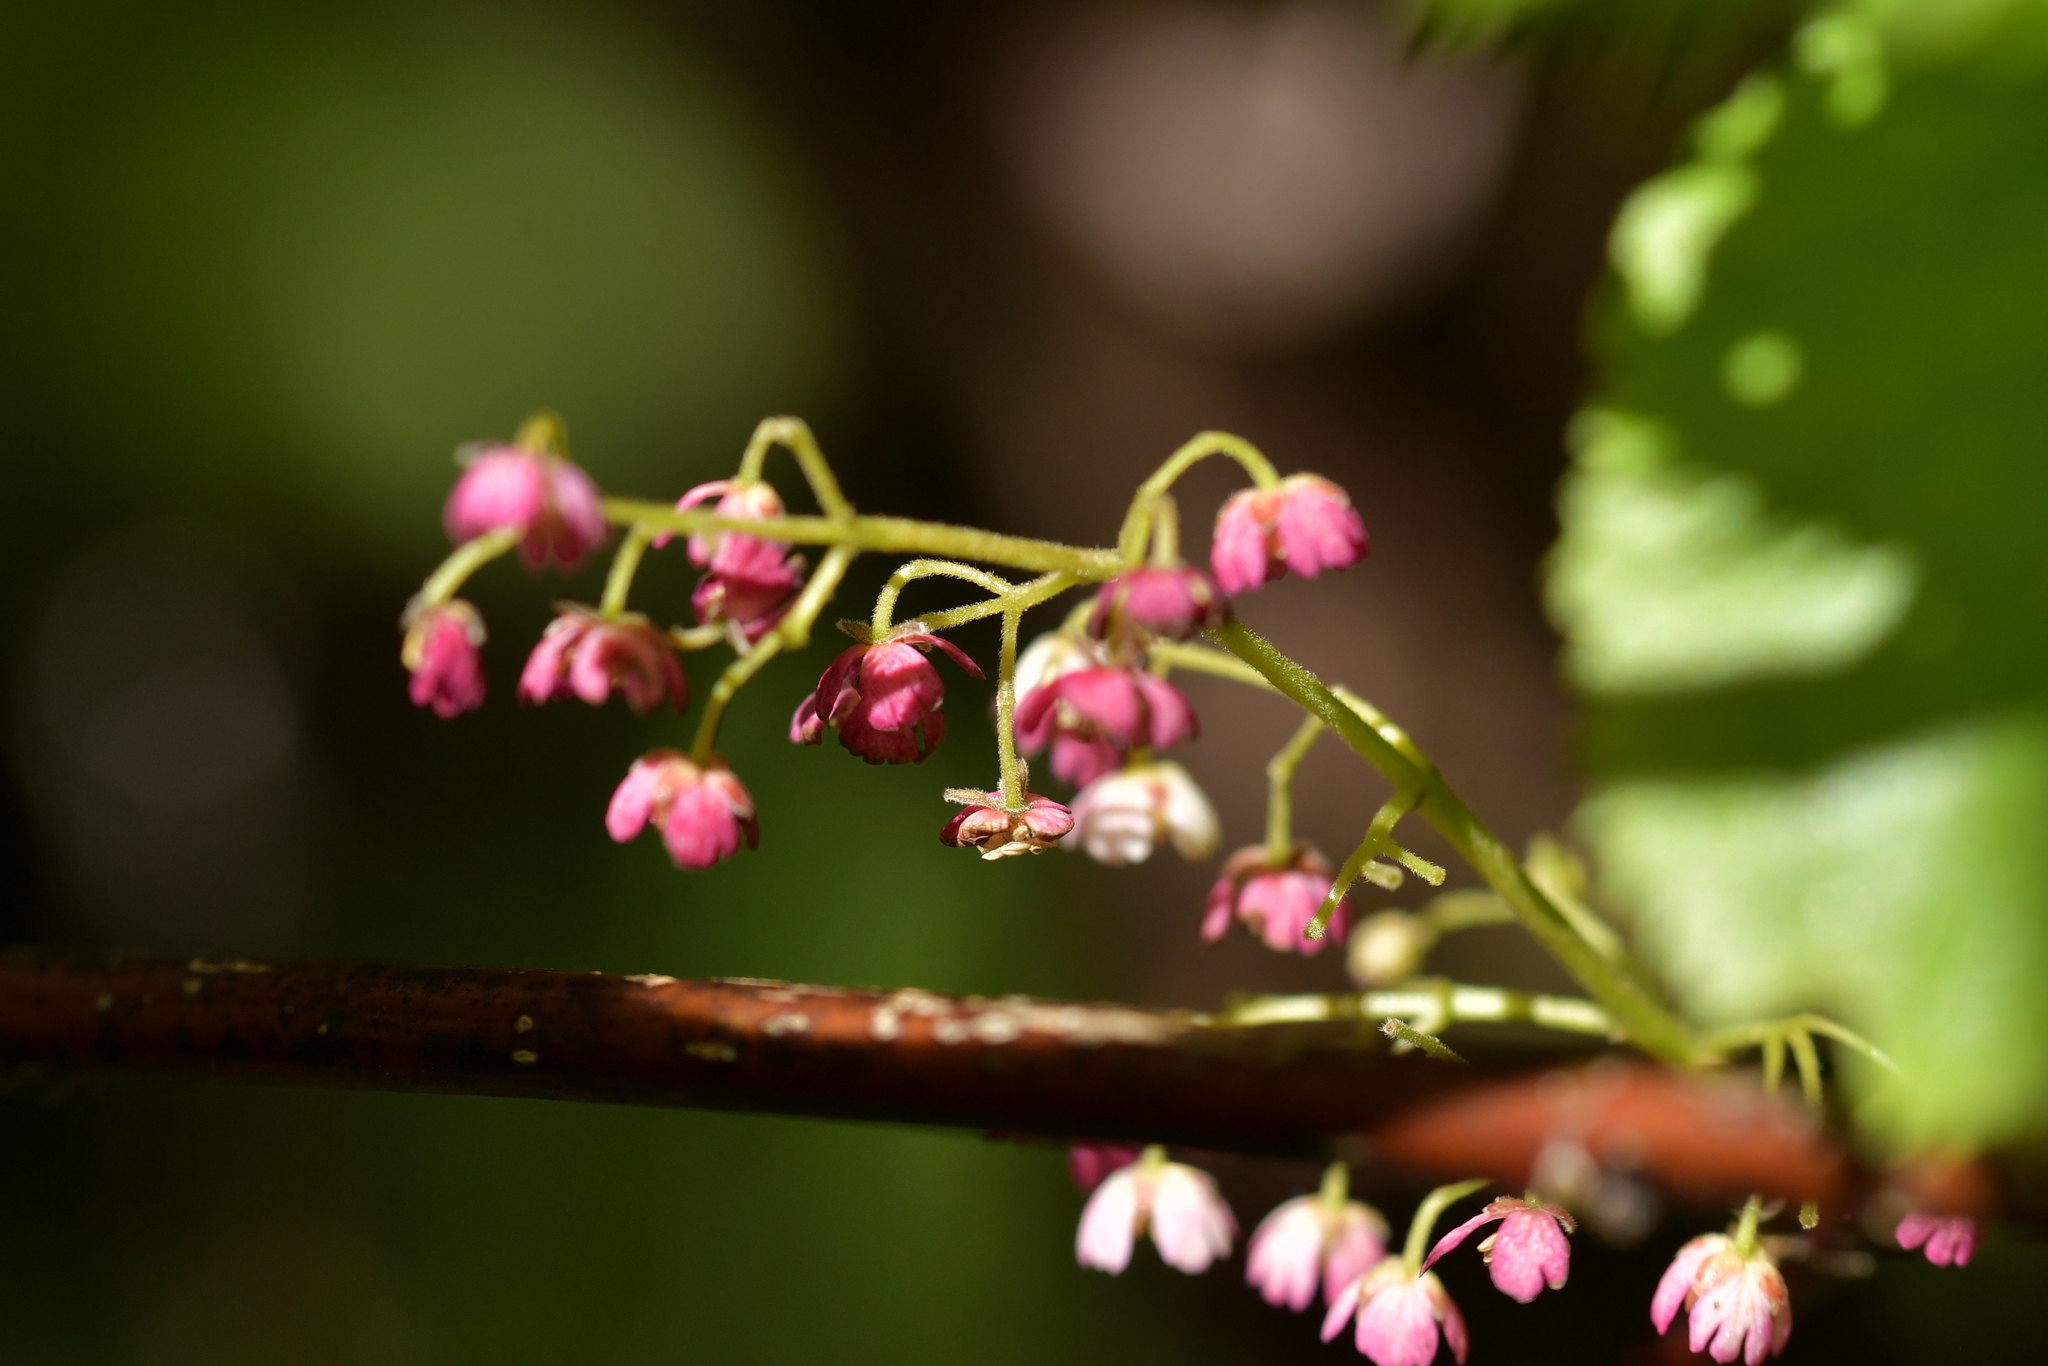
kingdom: Plantae
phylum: Tracheophyta
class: Magnoliopsida
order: Oxalidales
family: Elaeocarpaceae
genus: Aristotelia
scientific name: Aristotelia serrata
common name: New zealand wineberry
